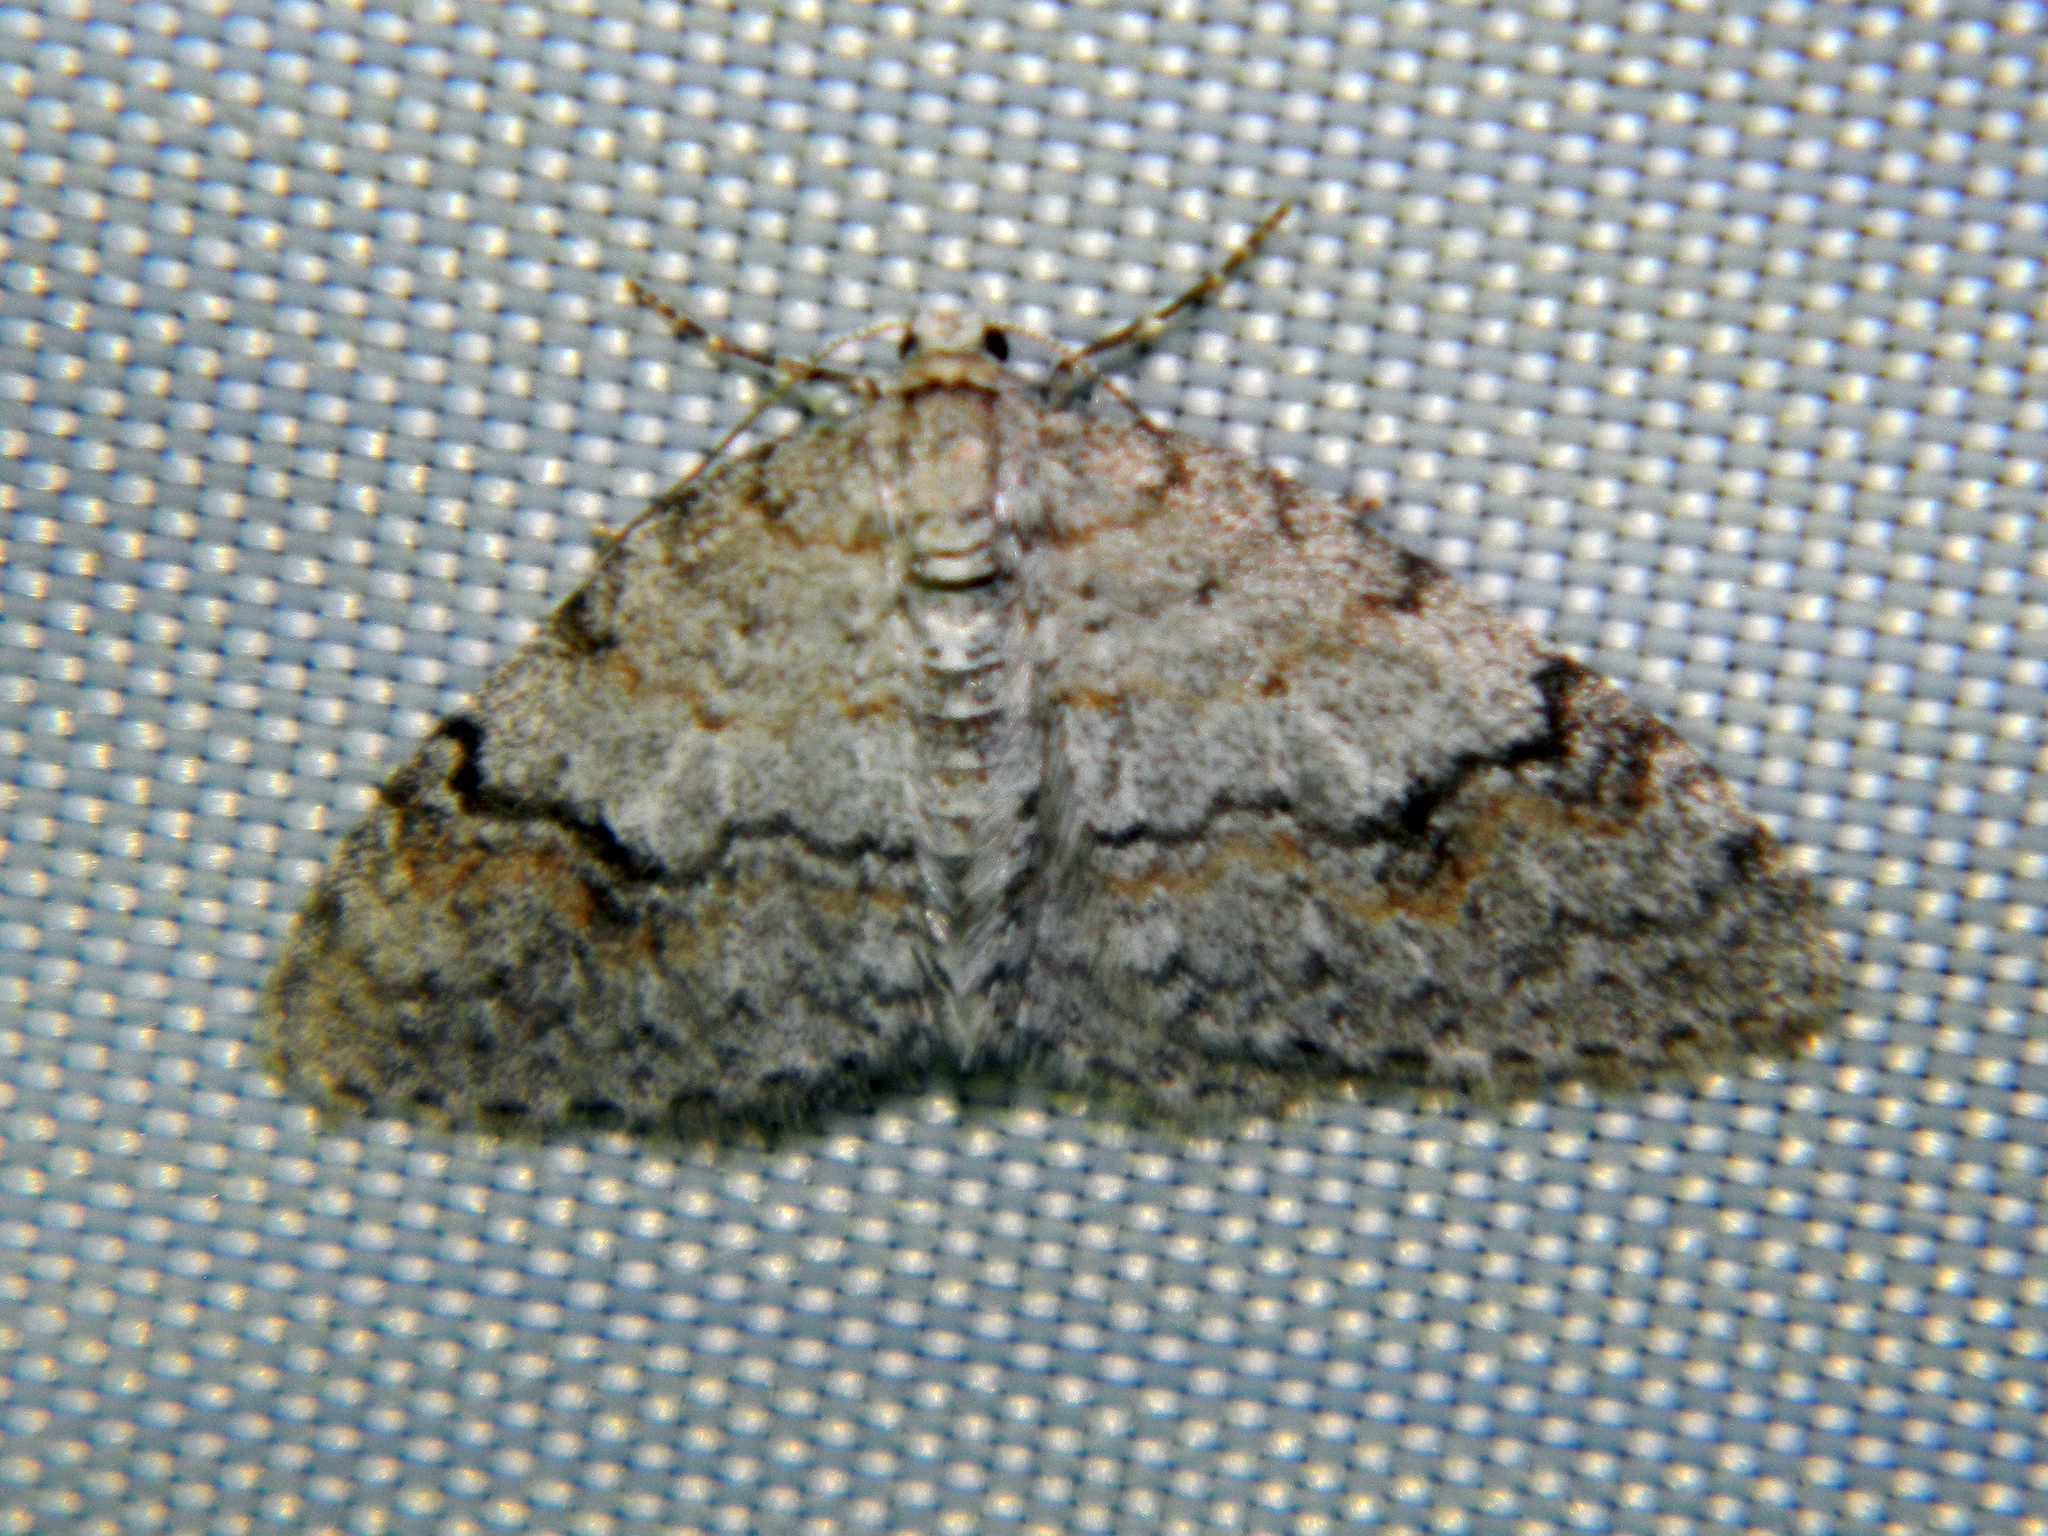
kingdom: Animalia
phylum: Arthropoda
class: Insecta
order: Lepidoptera
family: Geometridae
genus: Venusia
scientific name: Venusia comptaria
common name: Brown-shaded carpet
